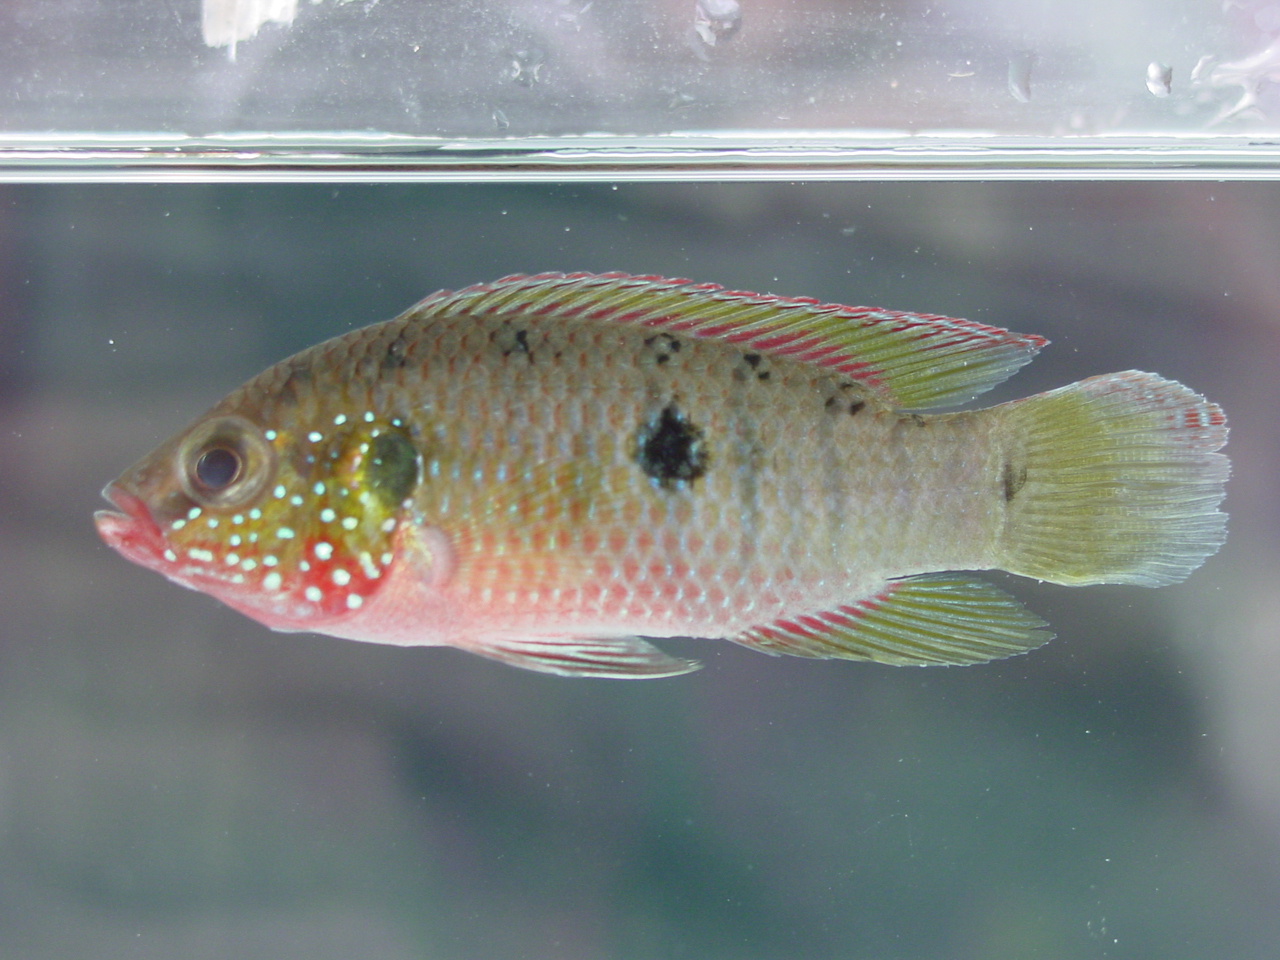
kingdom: Animalia
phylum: Chordata
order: Perciformes
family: Cichlidae
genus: Rubricatochromis
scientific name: Rubricatochromis
